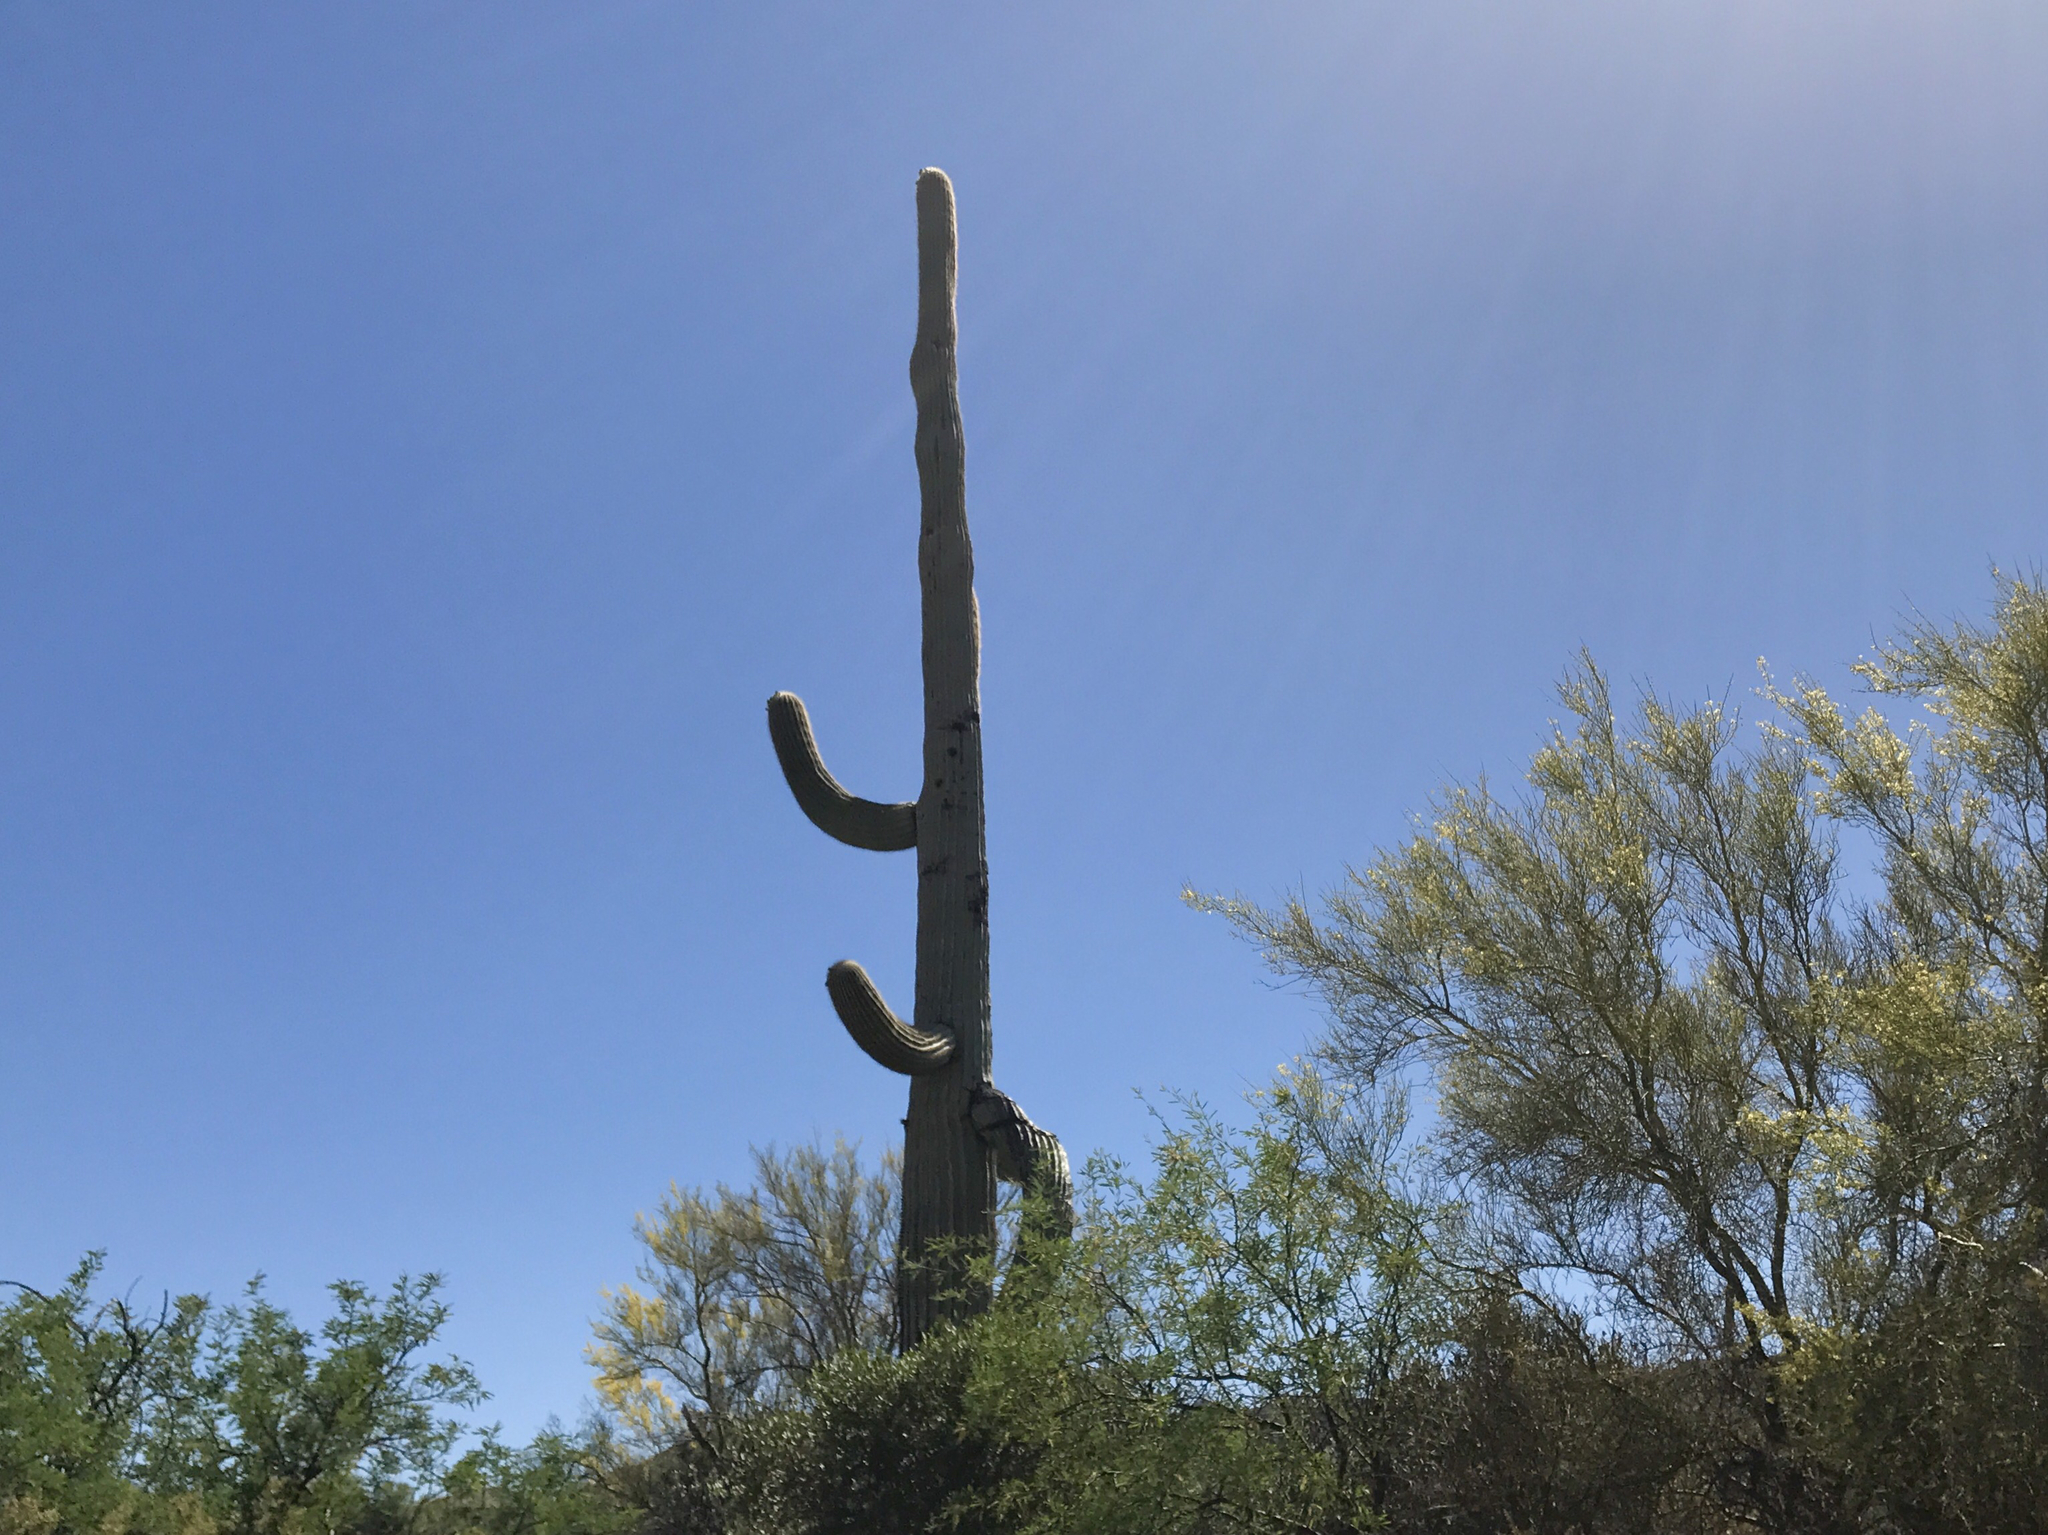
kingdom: Plantae
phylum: Tracheophyta
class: Magnoliopsida
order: Caryophyllales
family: Cactaceae
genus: Carnegiea
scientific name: Carnegiea gigantea
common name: Saguaro
